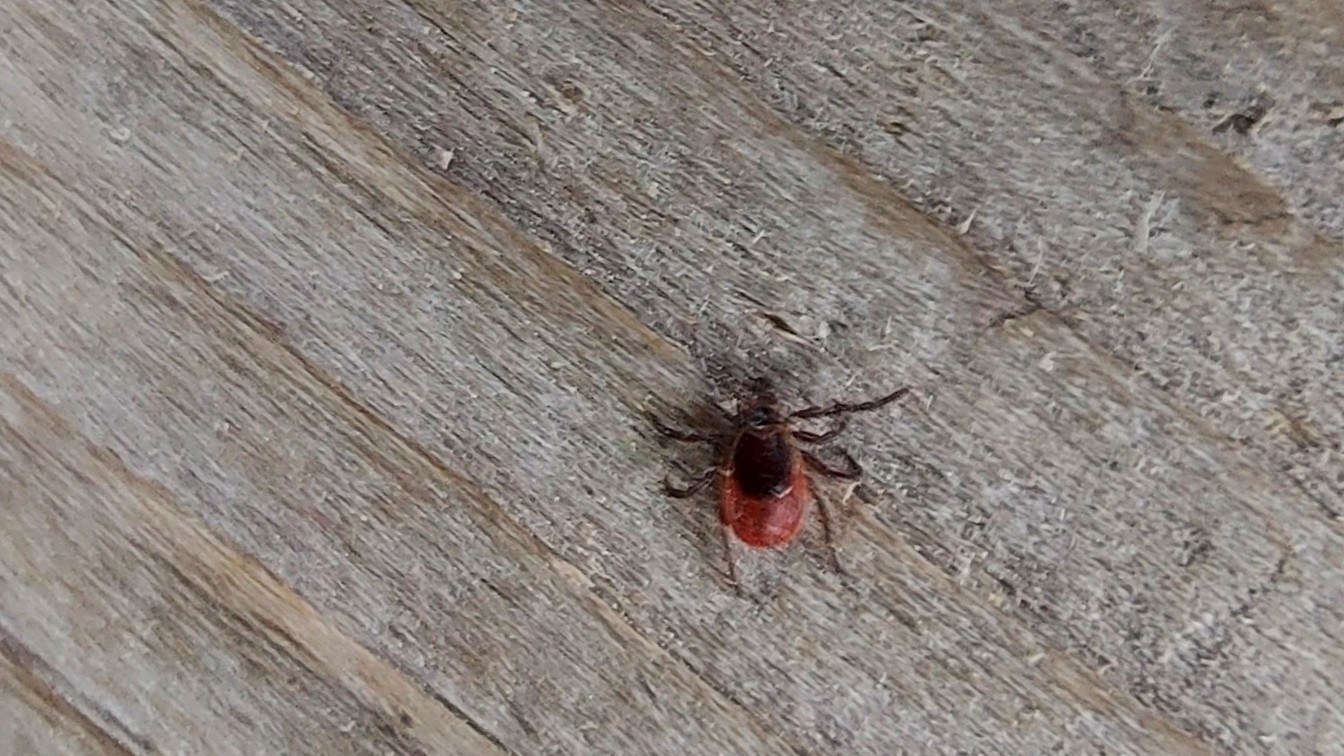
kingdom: Animalia
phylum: Arthropoda
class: Arachnida
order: Ixodida
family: Ixodidae
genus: Ixodes
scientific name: Ixodes ricinus
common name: Castor bean tick
